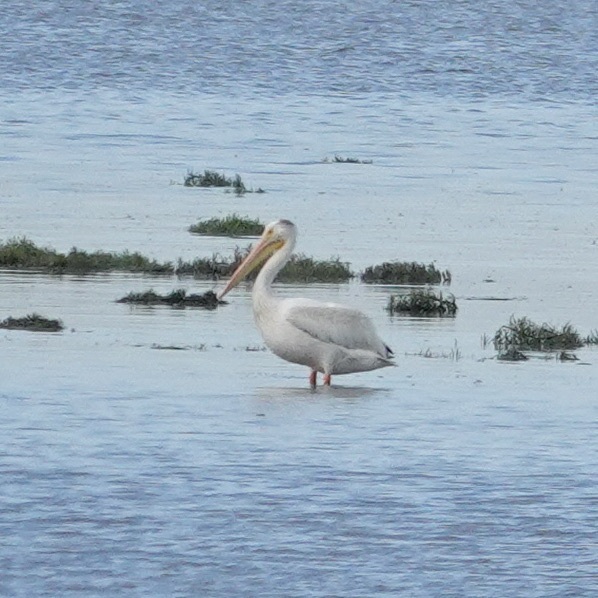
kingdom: Animalia
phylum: Chordata
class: Aves
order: Pelecaniformes
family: Pelecanidae
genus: Pelecanus
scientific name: Pelecanus erythrorhynchos
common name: American white pelican
